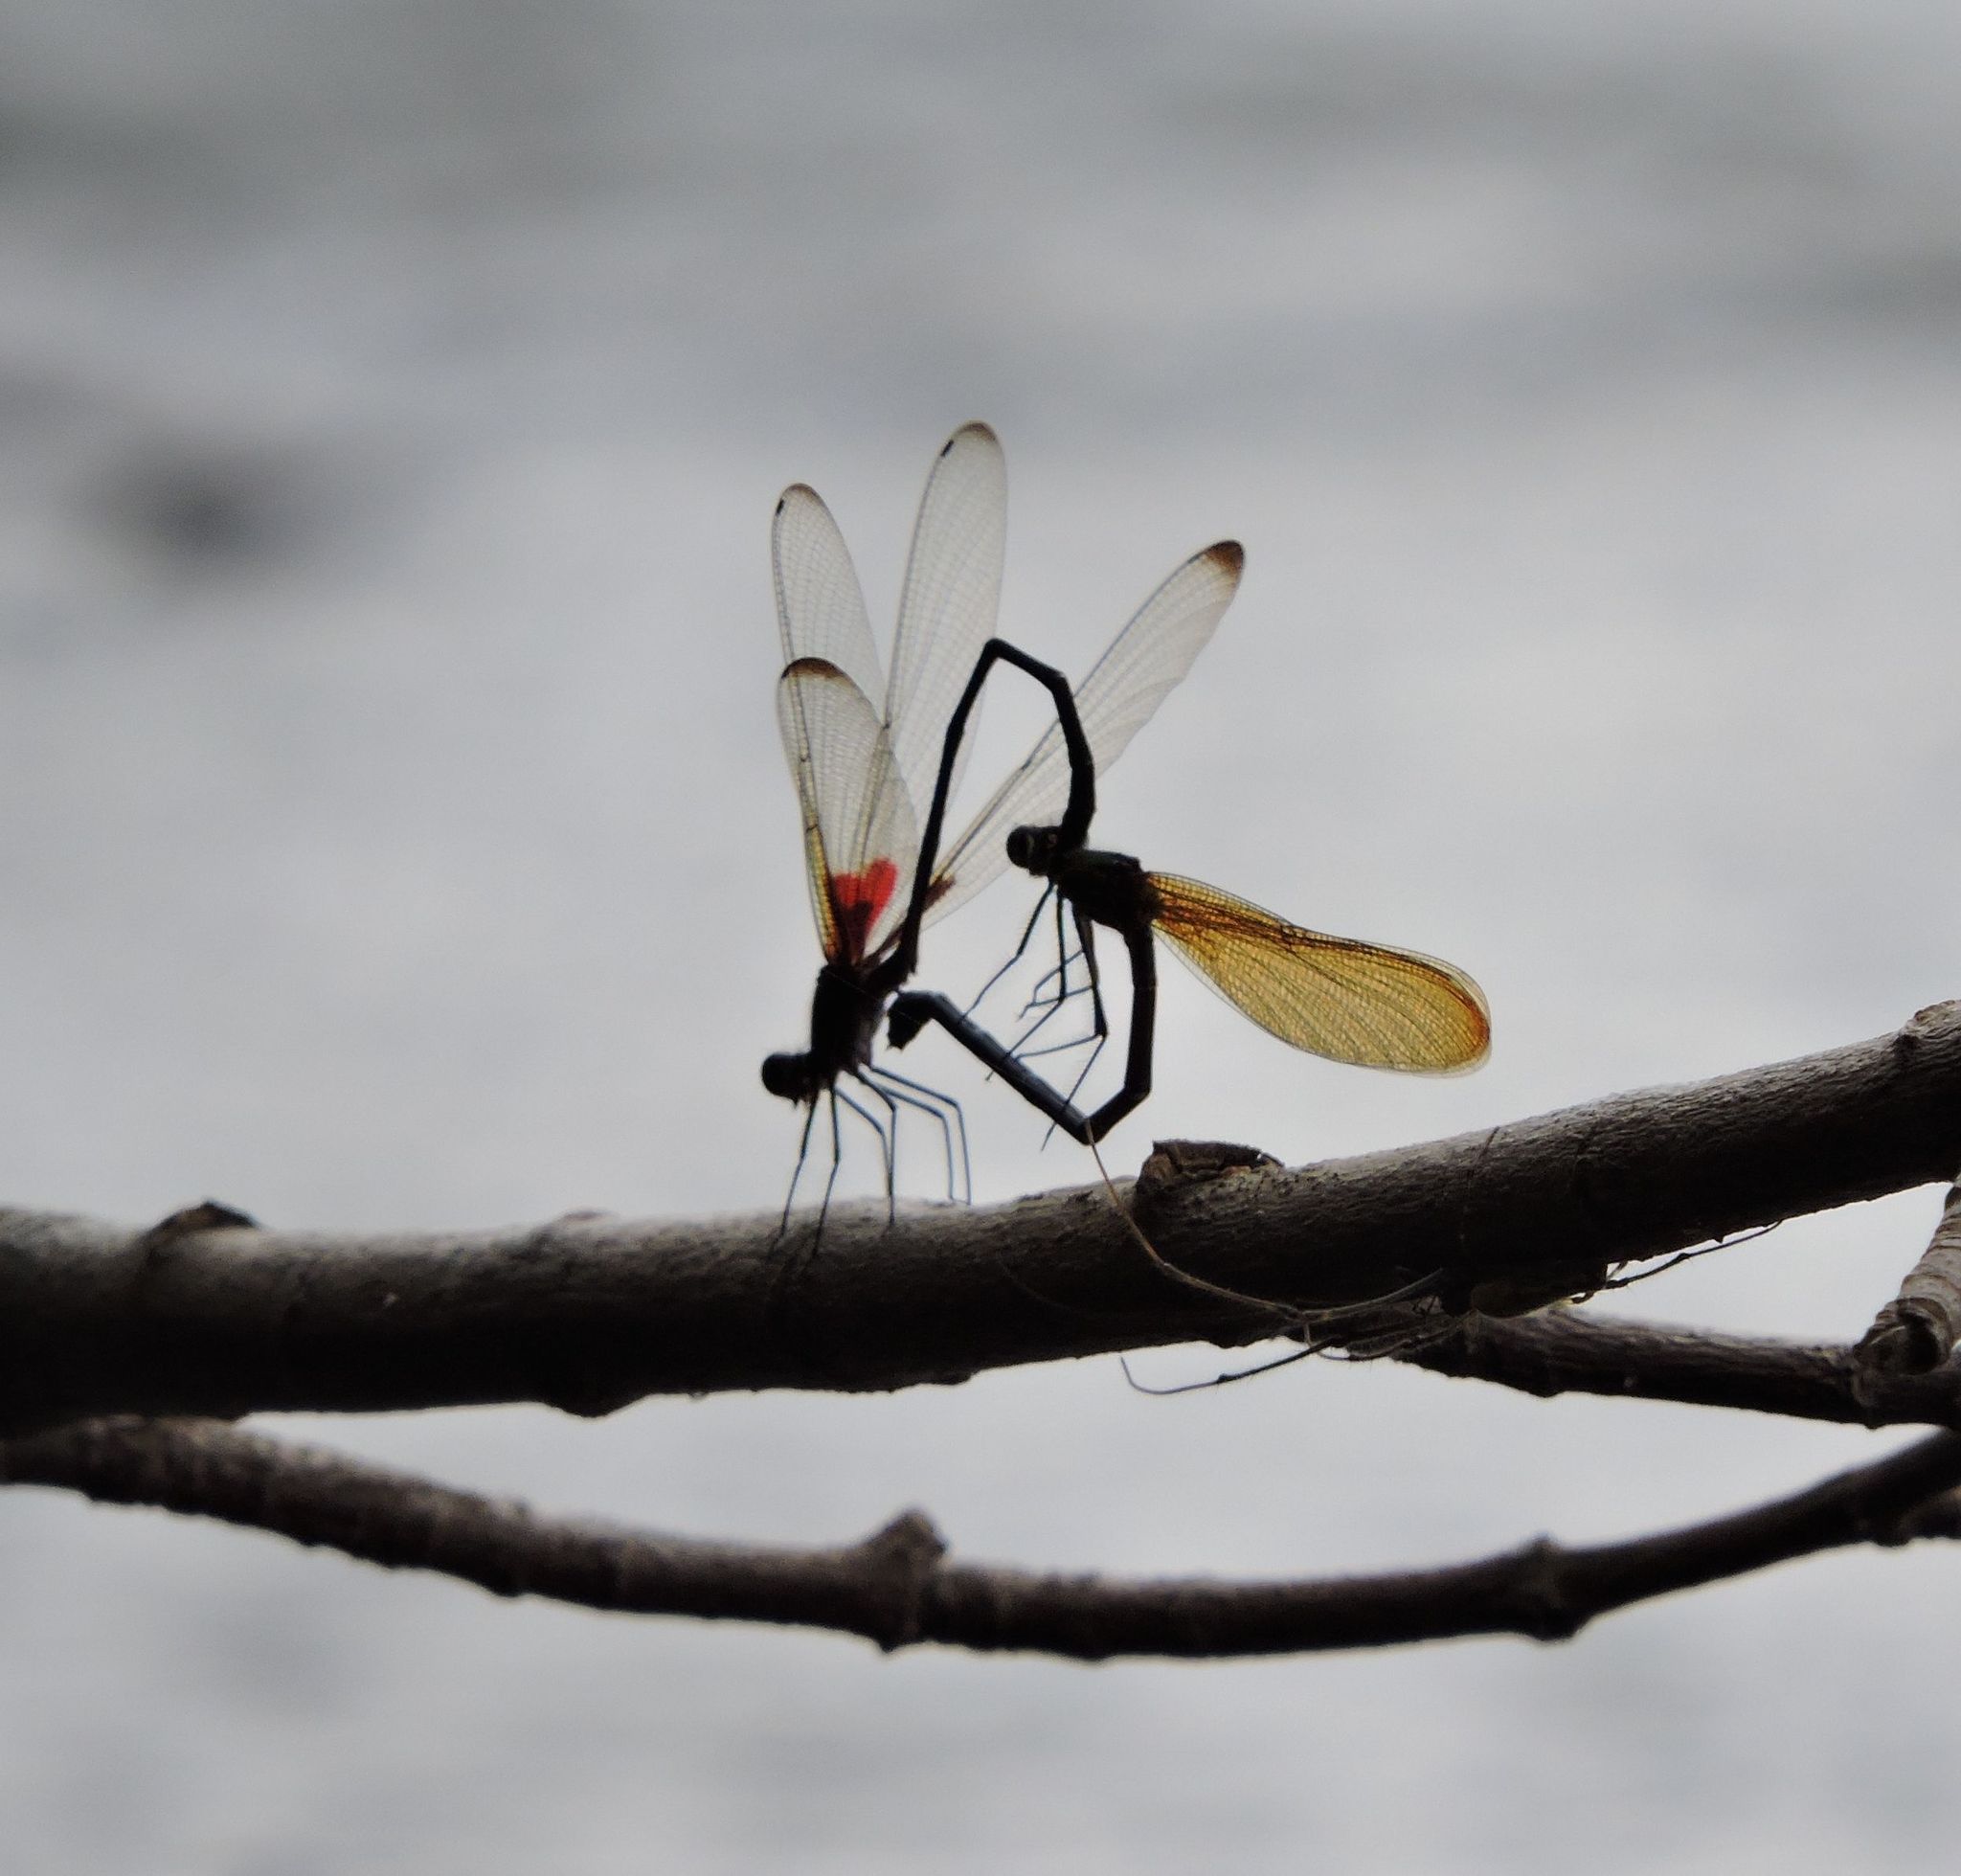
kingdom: Animalia
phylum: Arthropoda
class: Insecta
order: Odonata
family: Calopterygidae
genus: Hetaerina
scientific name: Hetaerina titia
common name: Smoky rubyspot
